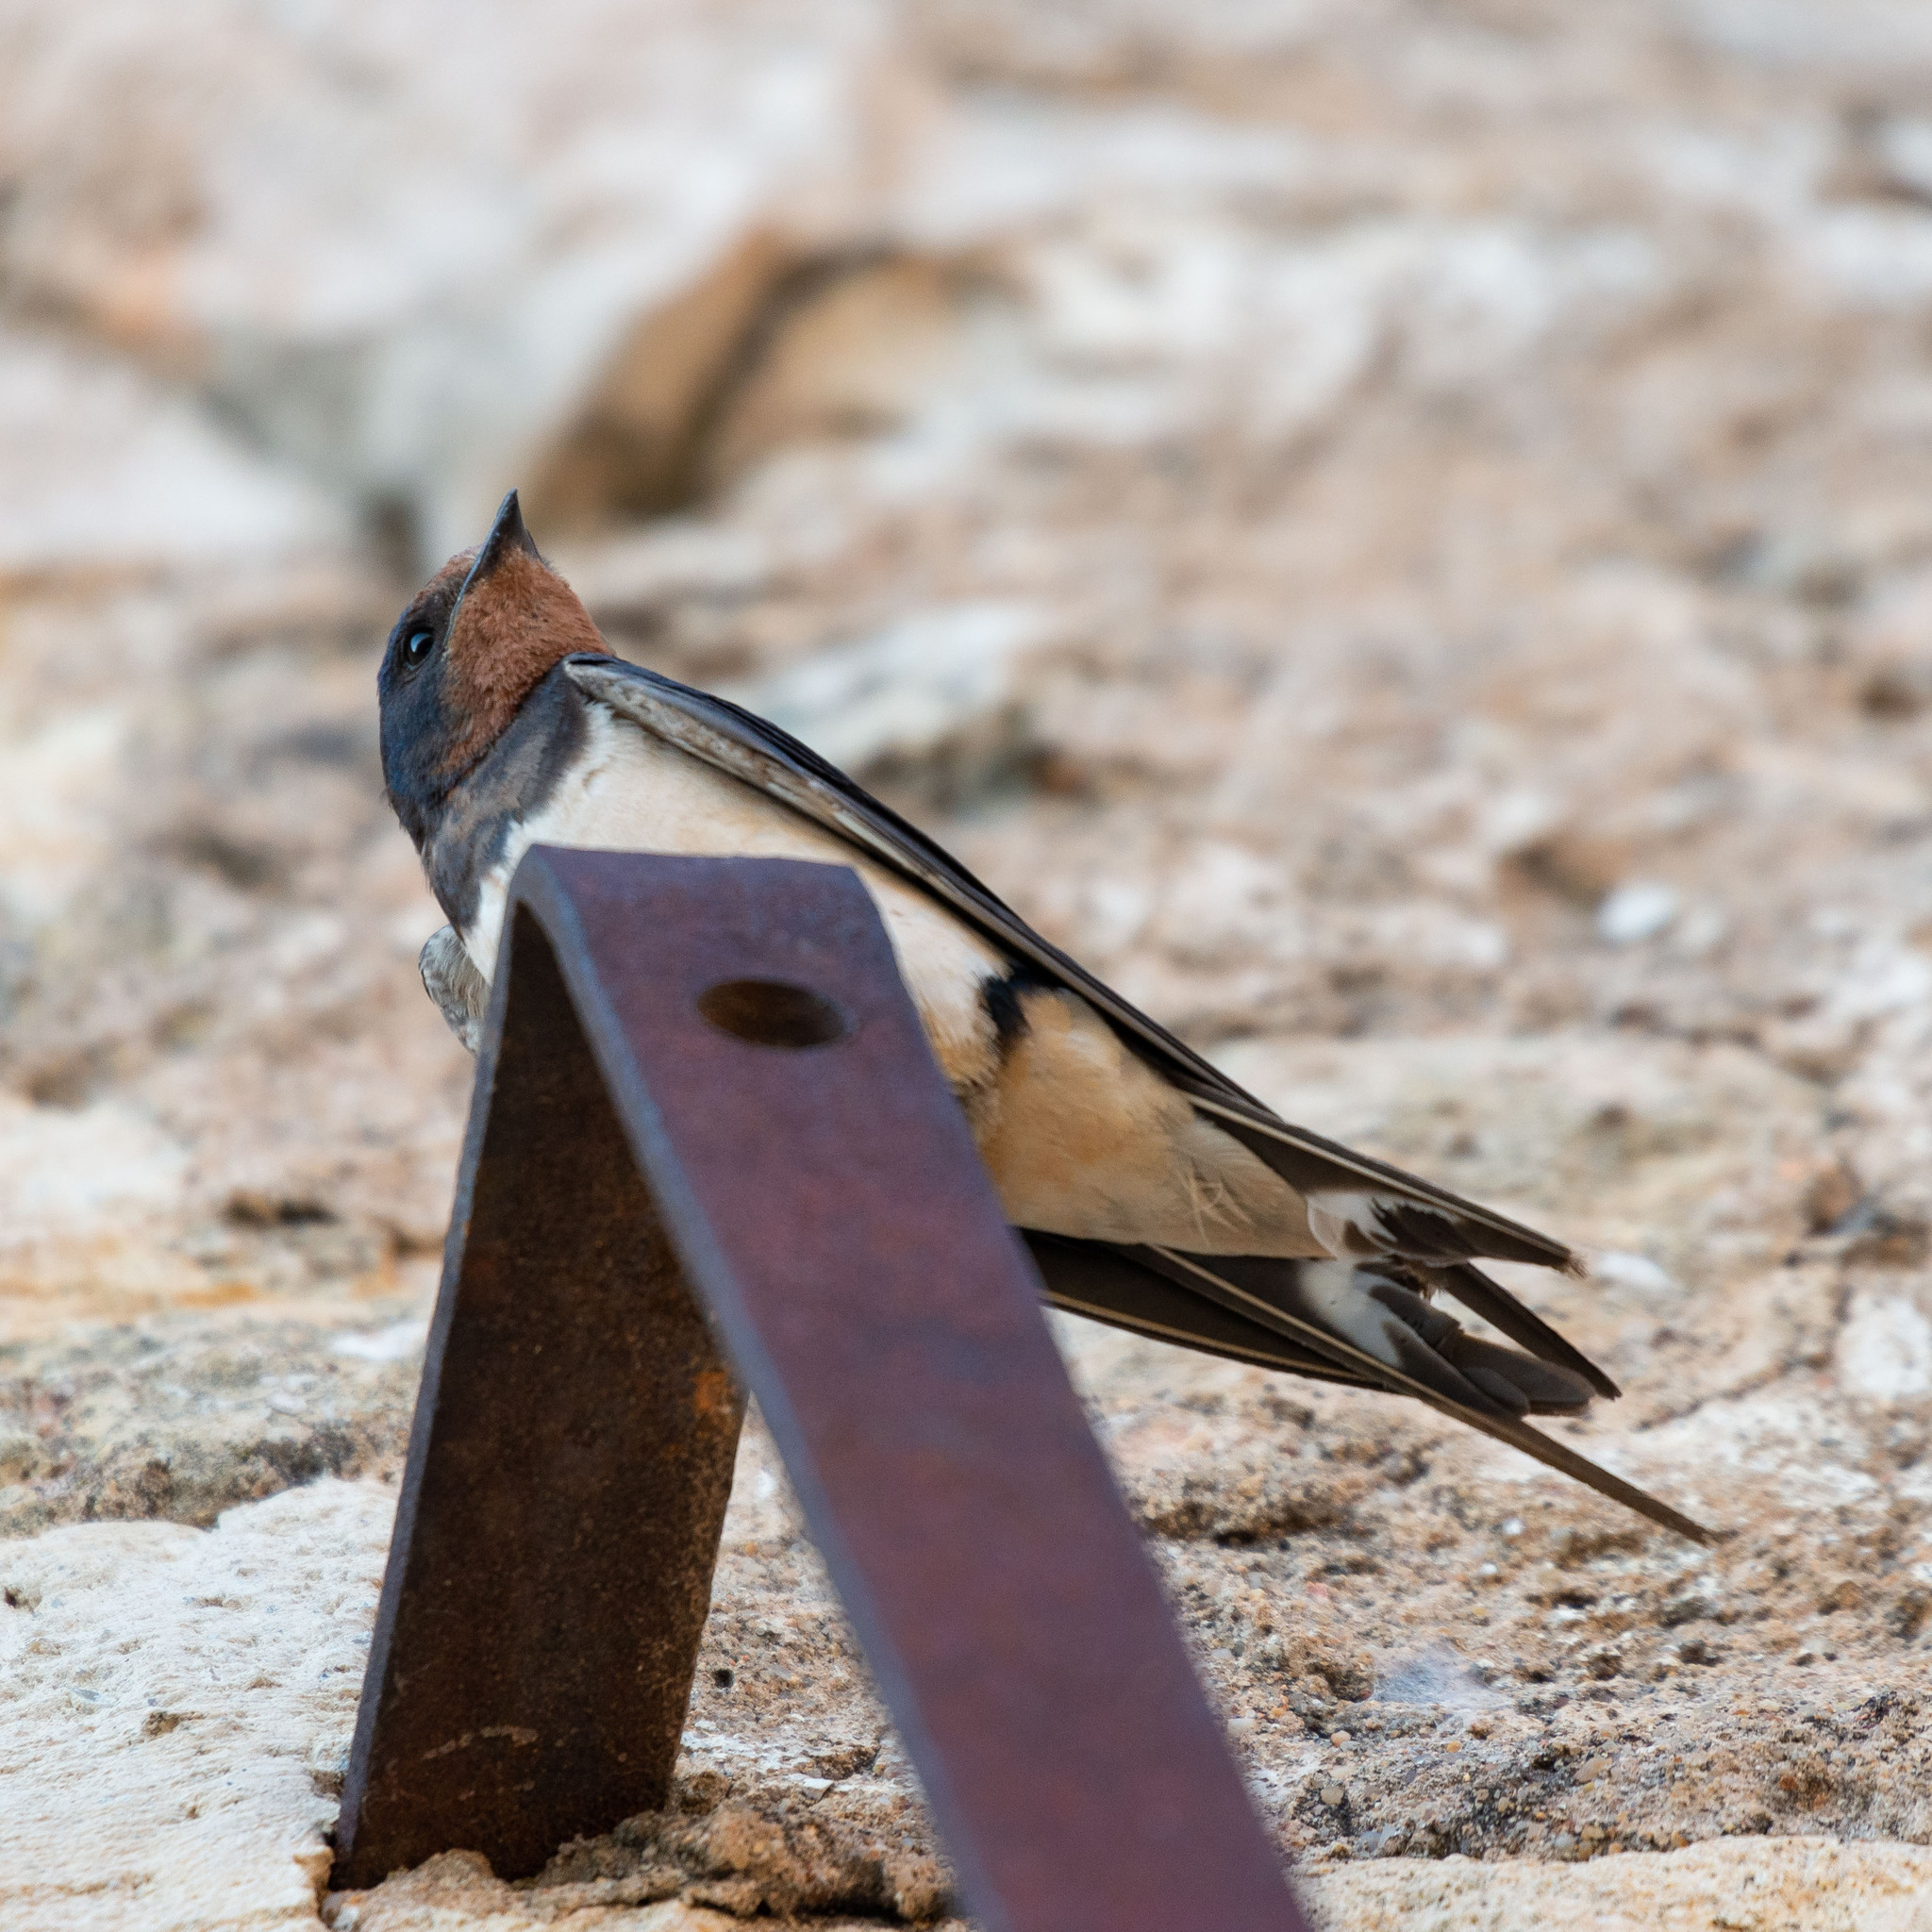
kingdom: Animalia
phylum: Chordata
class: Aves
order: Passeriformes
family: Hirundinidae
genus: Hirundo
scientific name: Hirundo rustica
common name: Barn swallow
